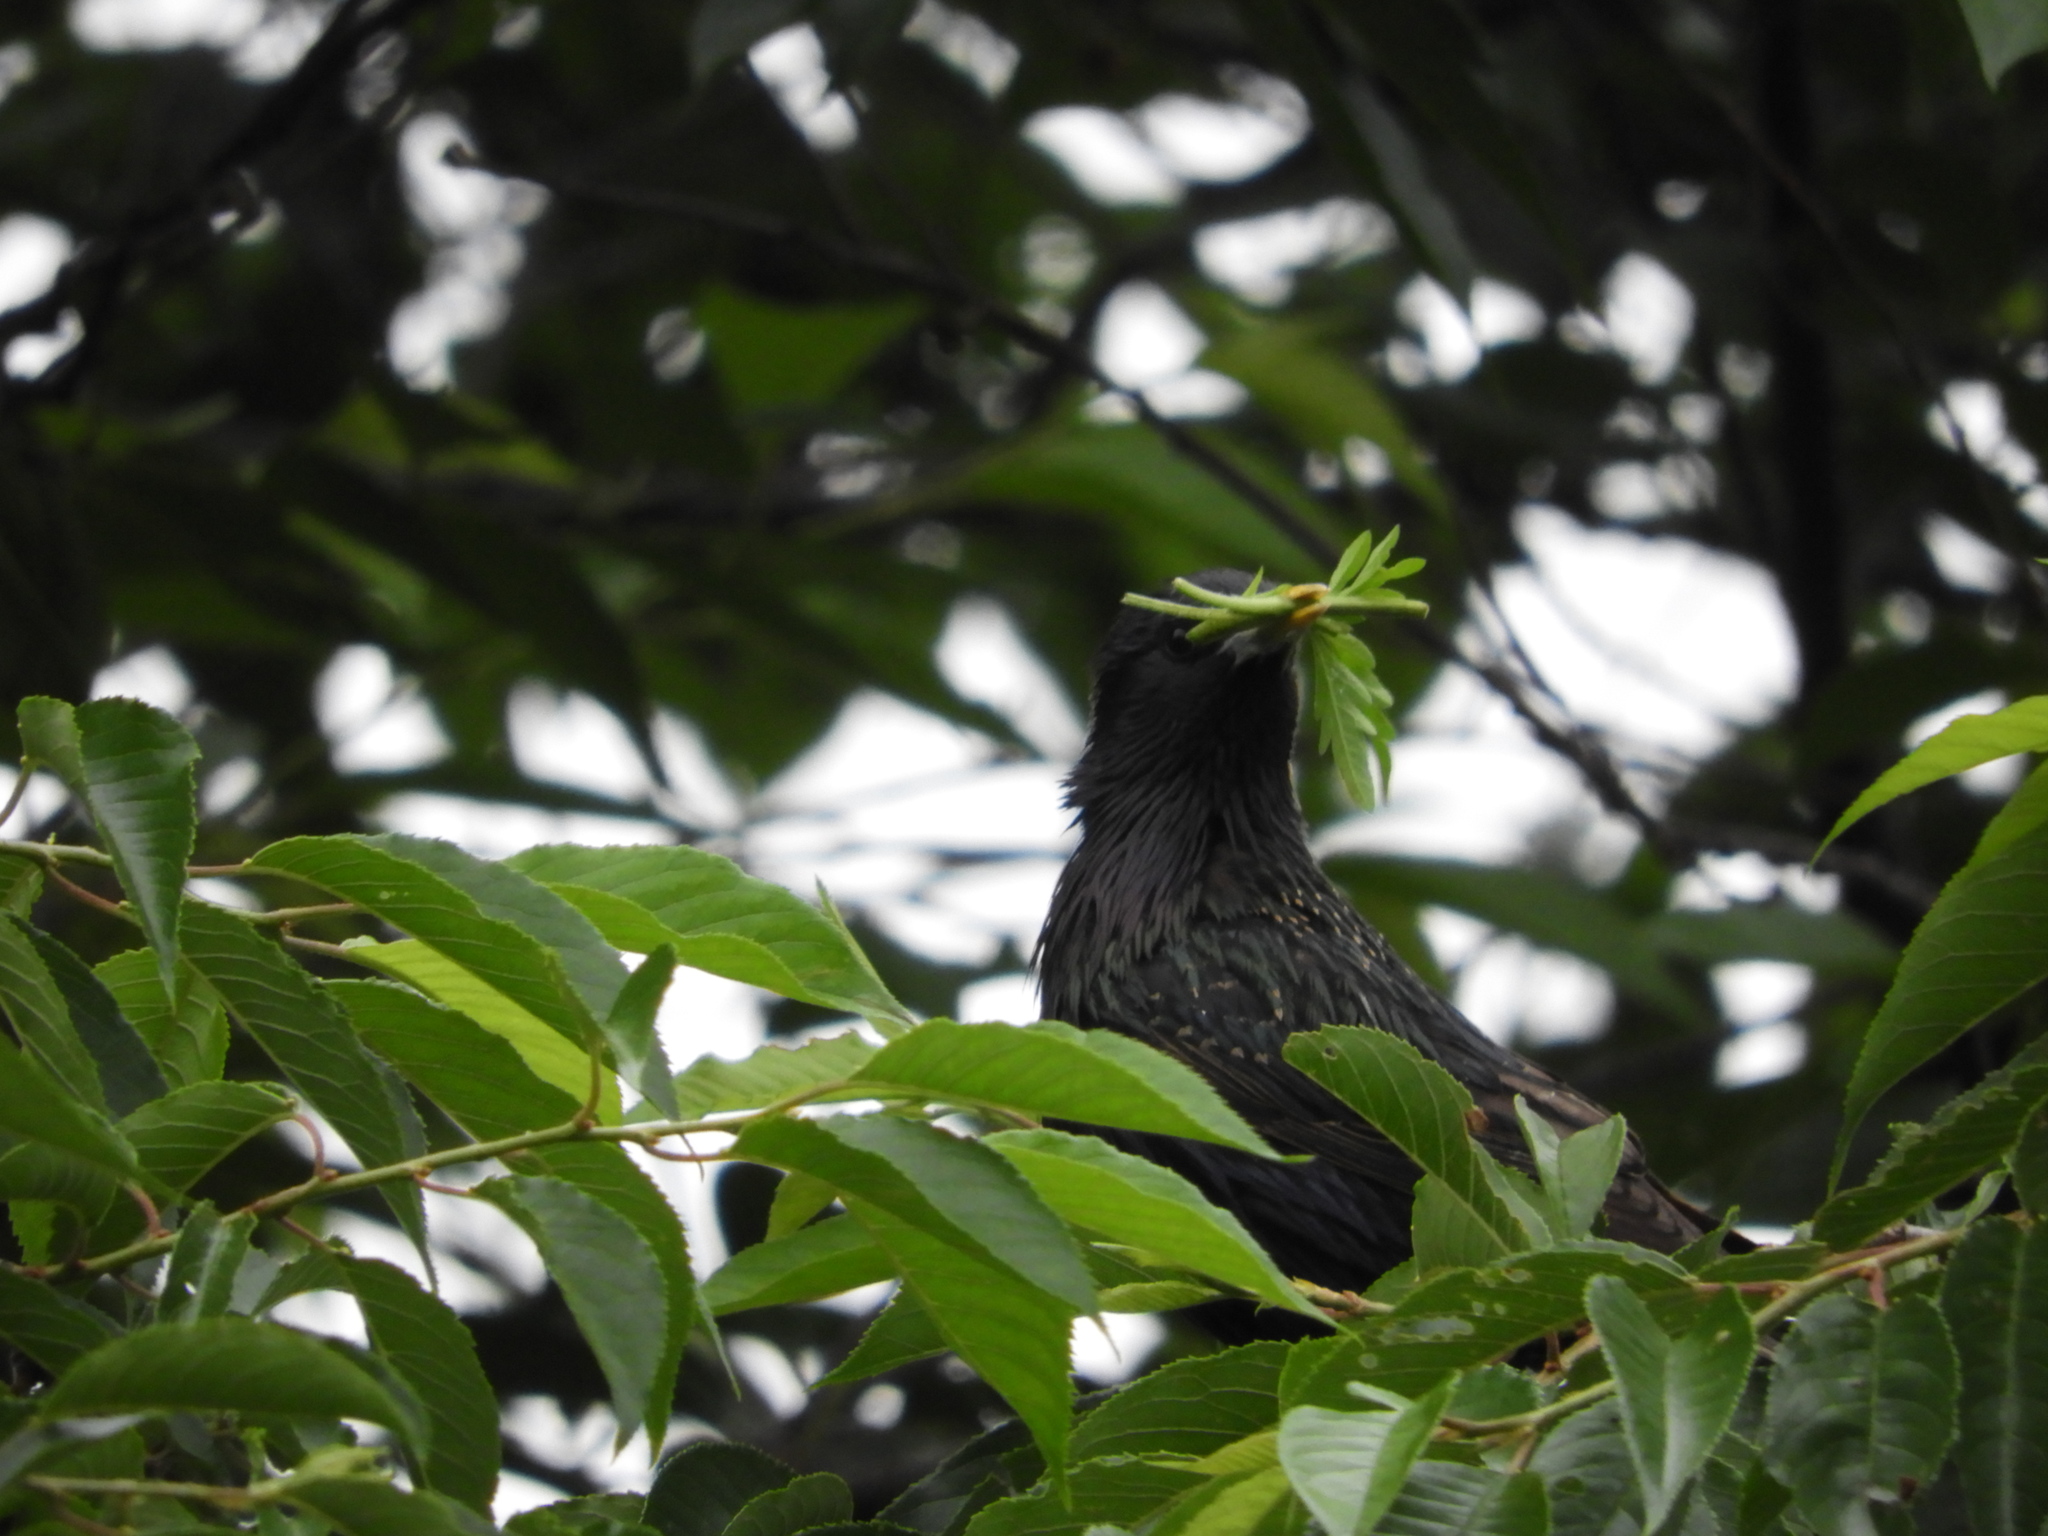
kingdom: Animalia
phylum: Chordata
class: Aves
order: Passeriformes
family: Sturnidae
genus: Sturnus
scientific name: Sturnus vulgaris
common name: Common starling
